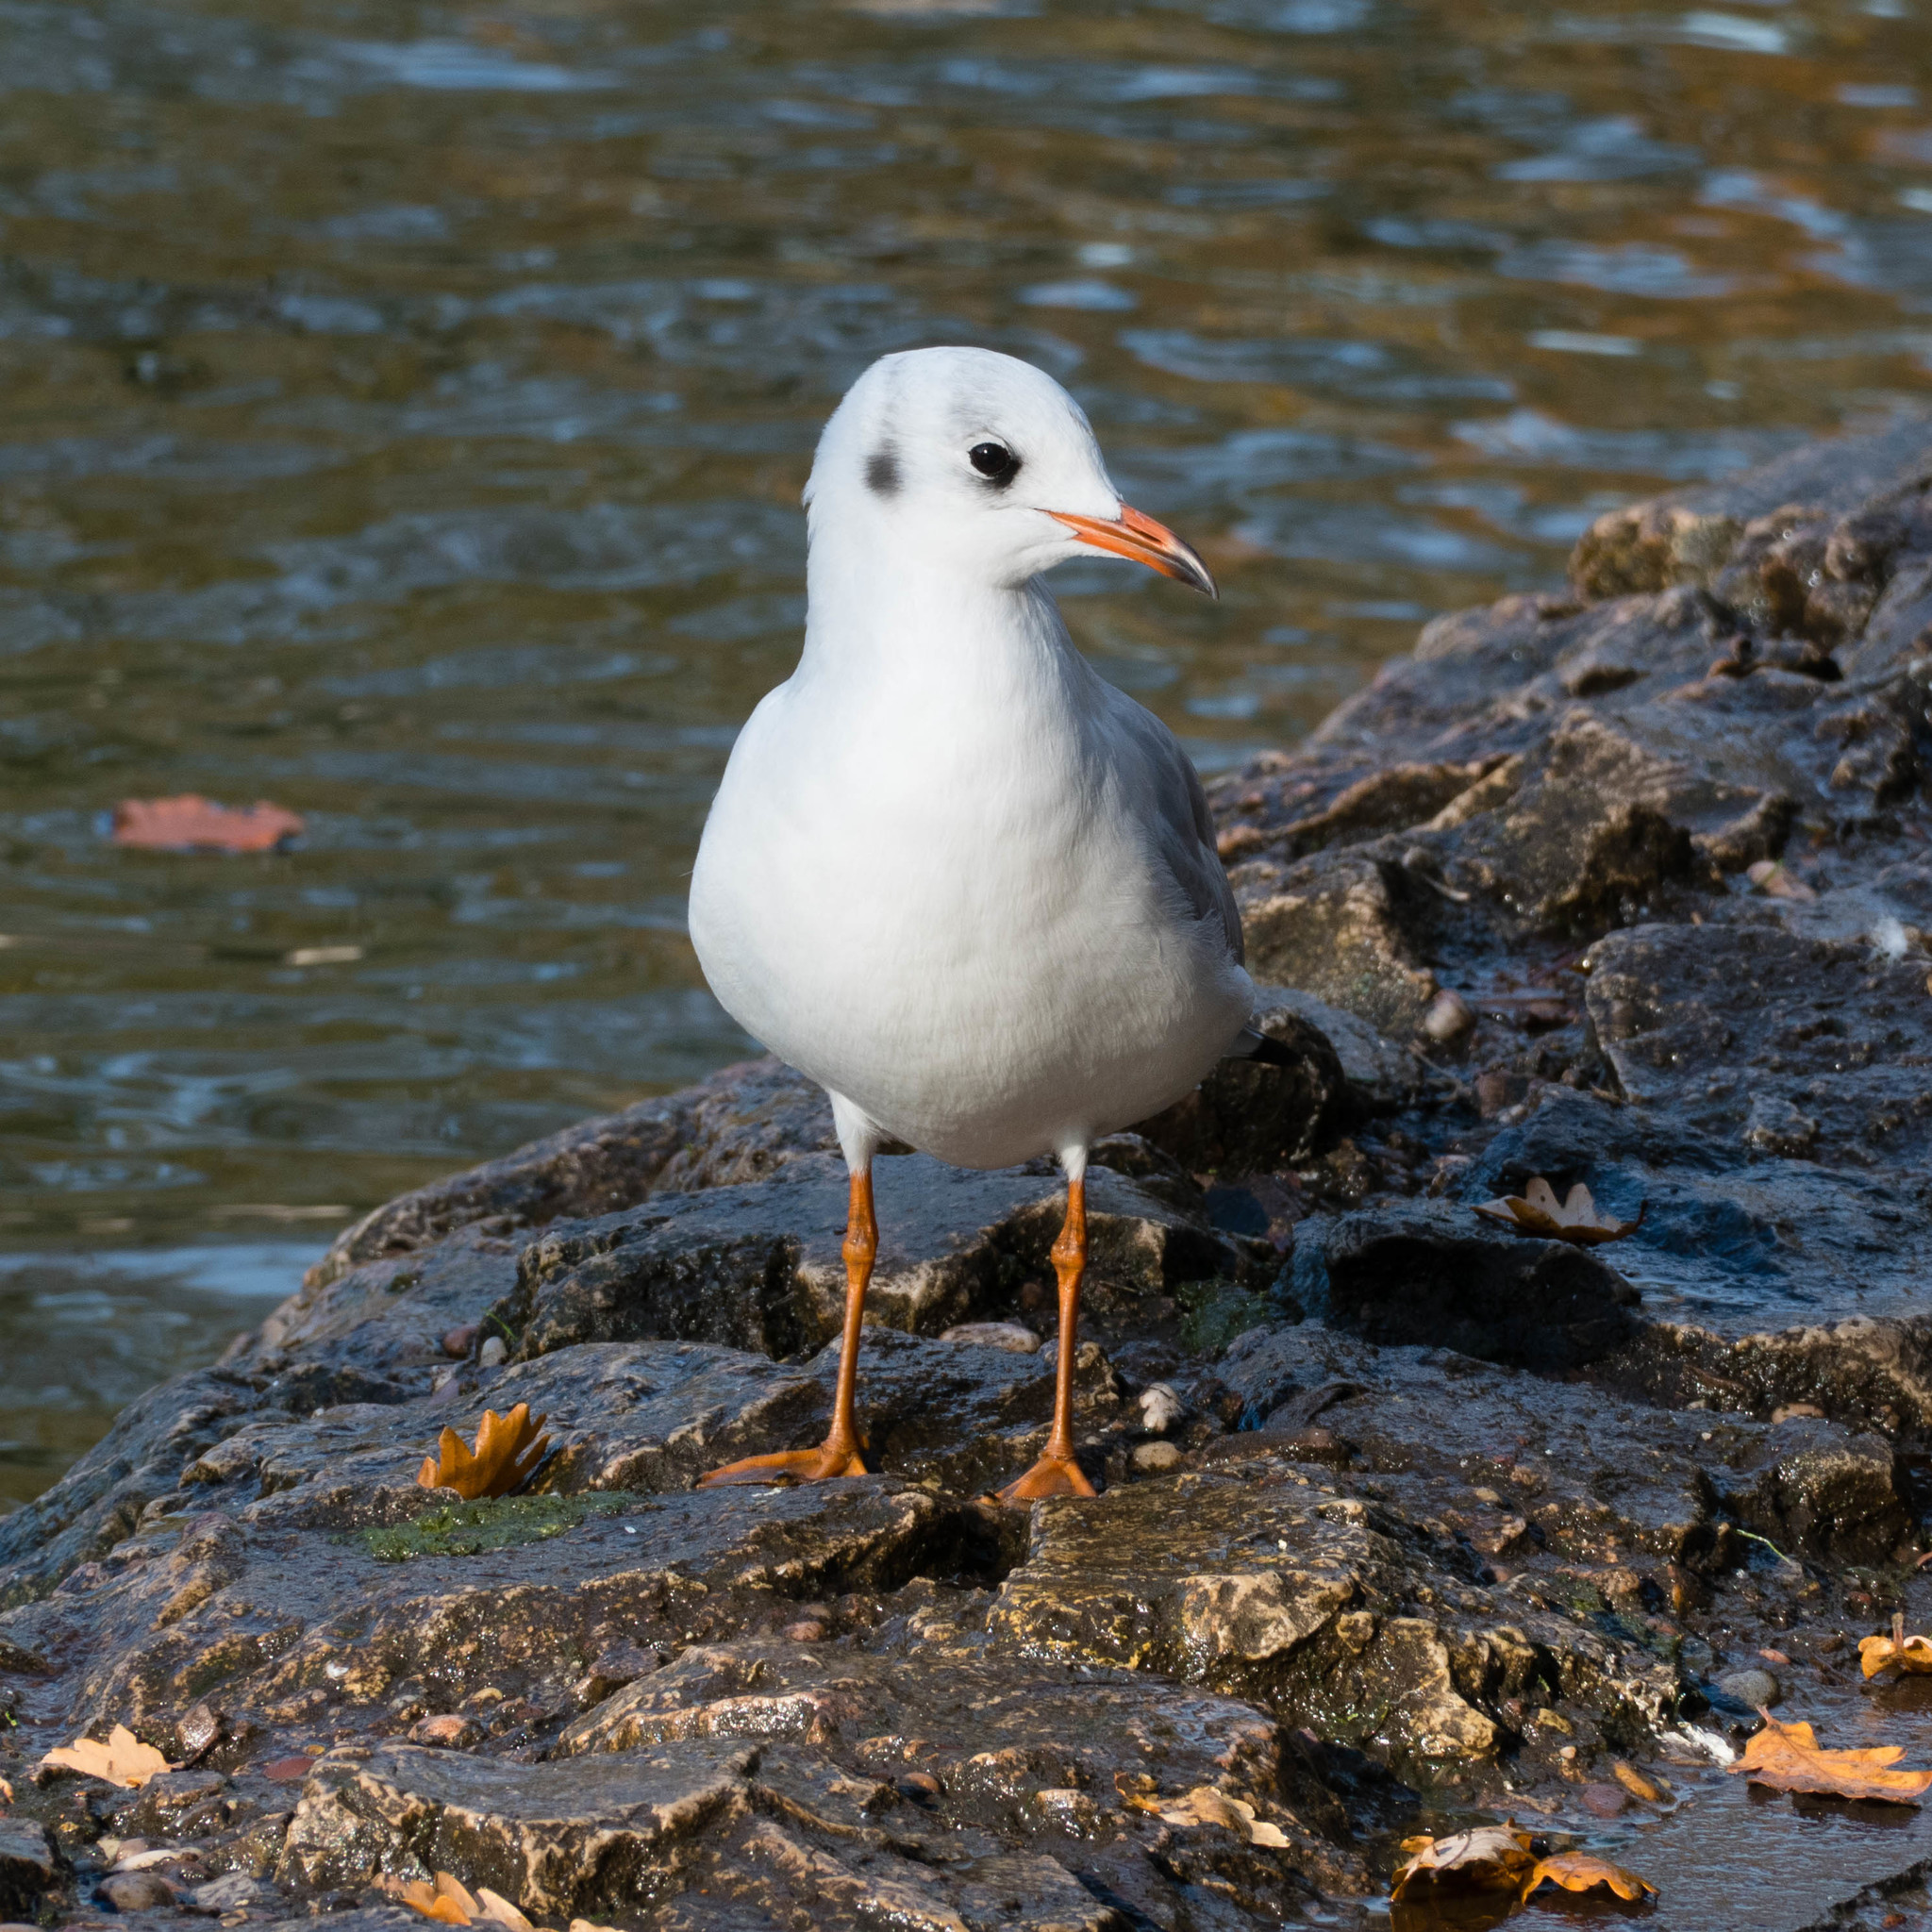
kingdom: Animalia
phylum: Chordata
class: Aves
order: Charadriiformes
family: Laridae
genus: Chroicocephalus
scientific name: Chroicocephalus ridibundus
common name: Black-headed gull
